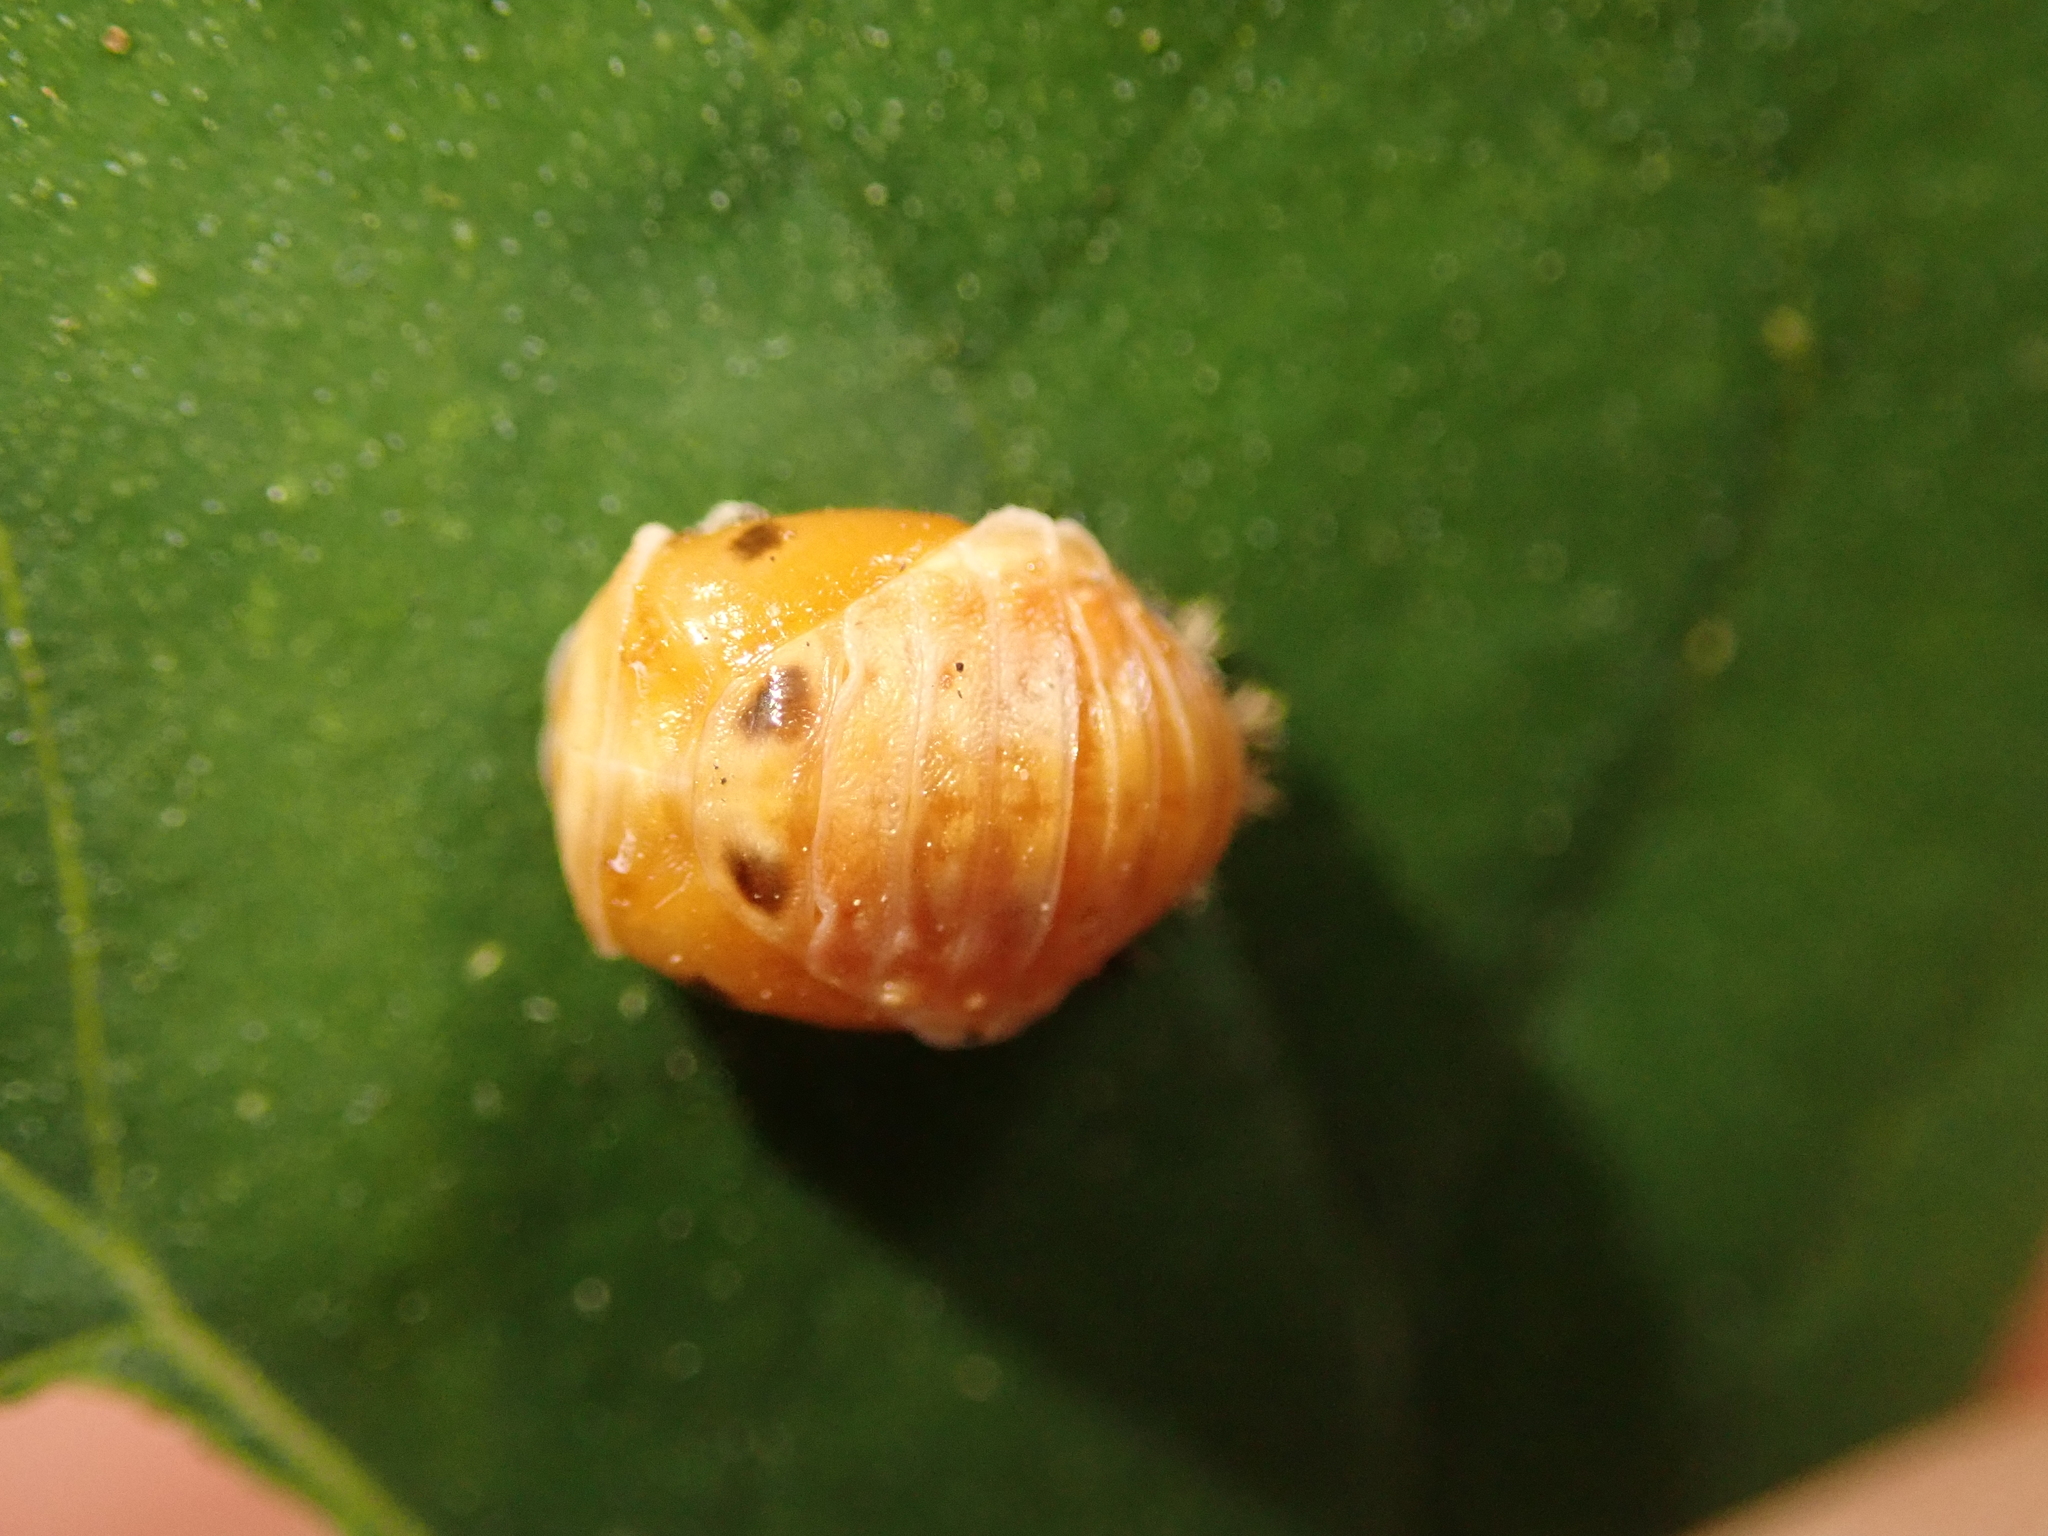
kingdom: Animalia
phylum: Arthropoda
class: Insecta
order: Coleoptera
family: Coccinellidae
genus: Harmonia
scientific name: Harmonia axyridis
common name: Harlequin ladybird
